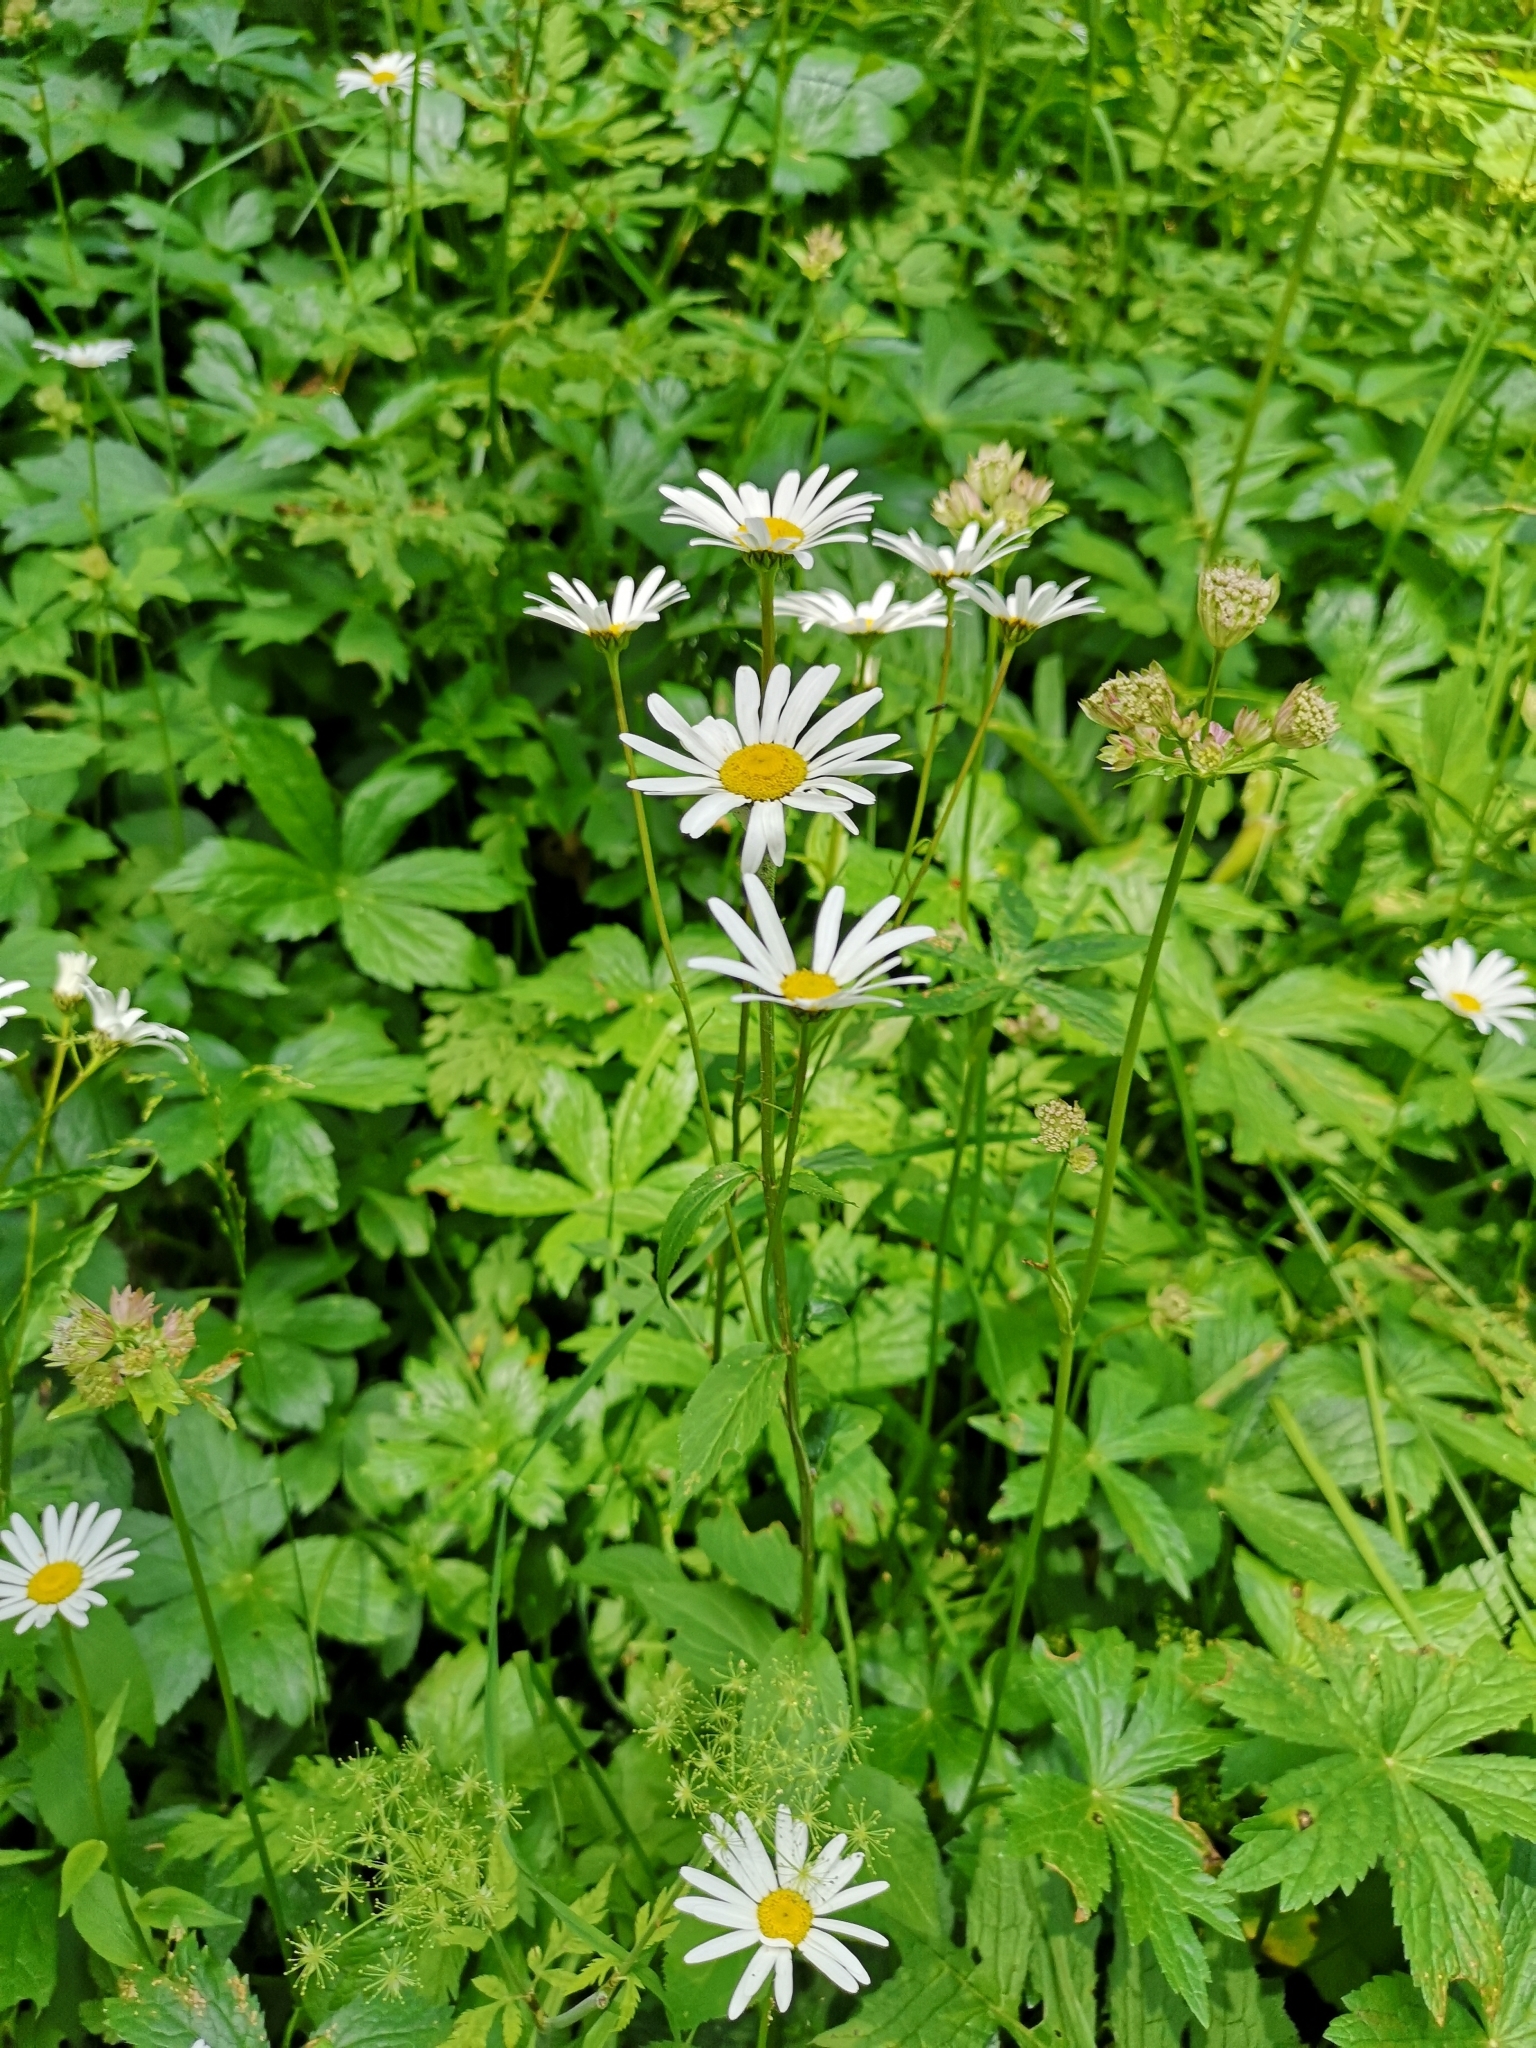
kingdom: Plantae
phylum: Tracheophyta
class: Magnoliopsida
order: Asterales
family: Asteraceae
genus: Leucanthemum
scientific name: Leucanthemum rotundifolium
